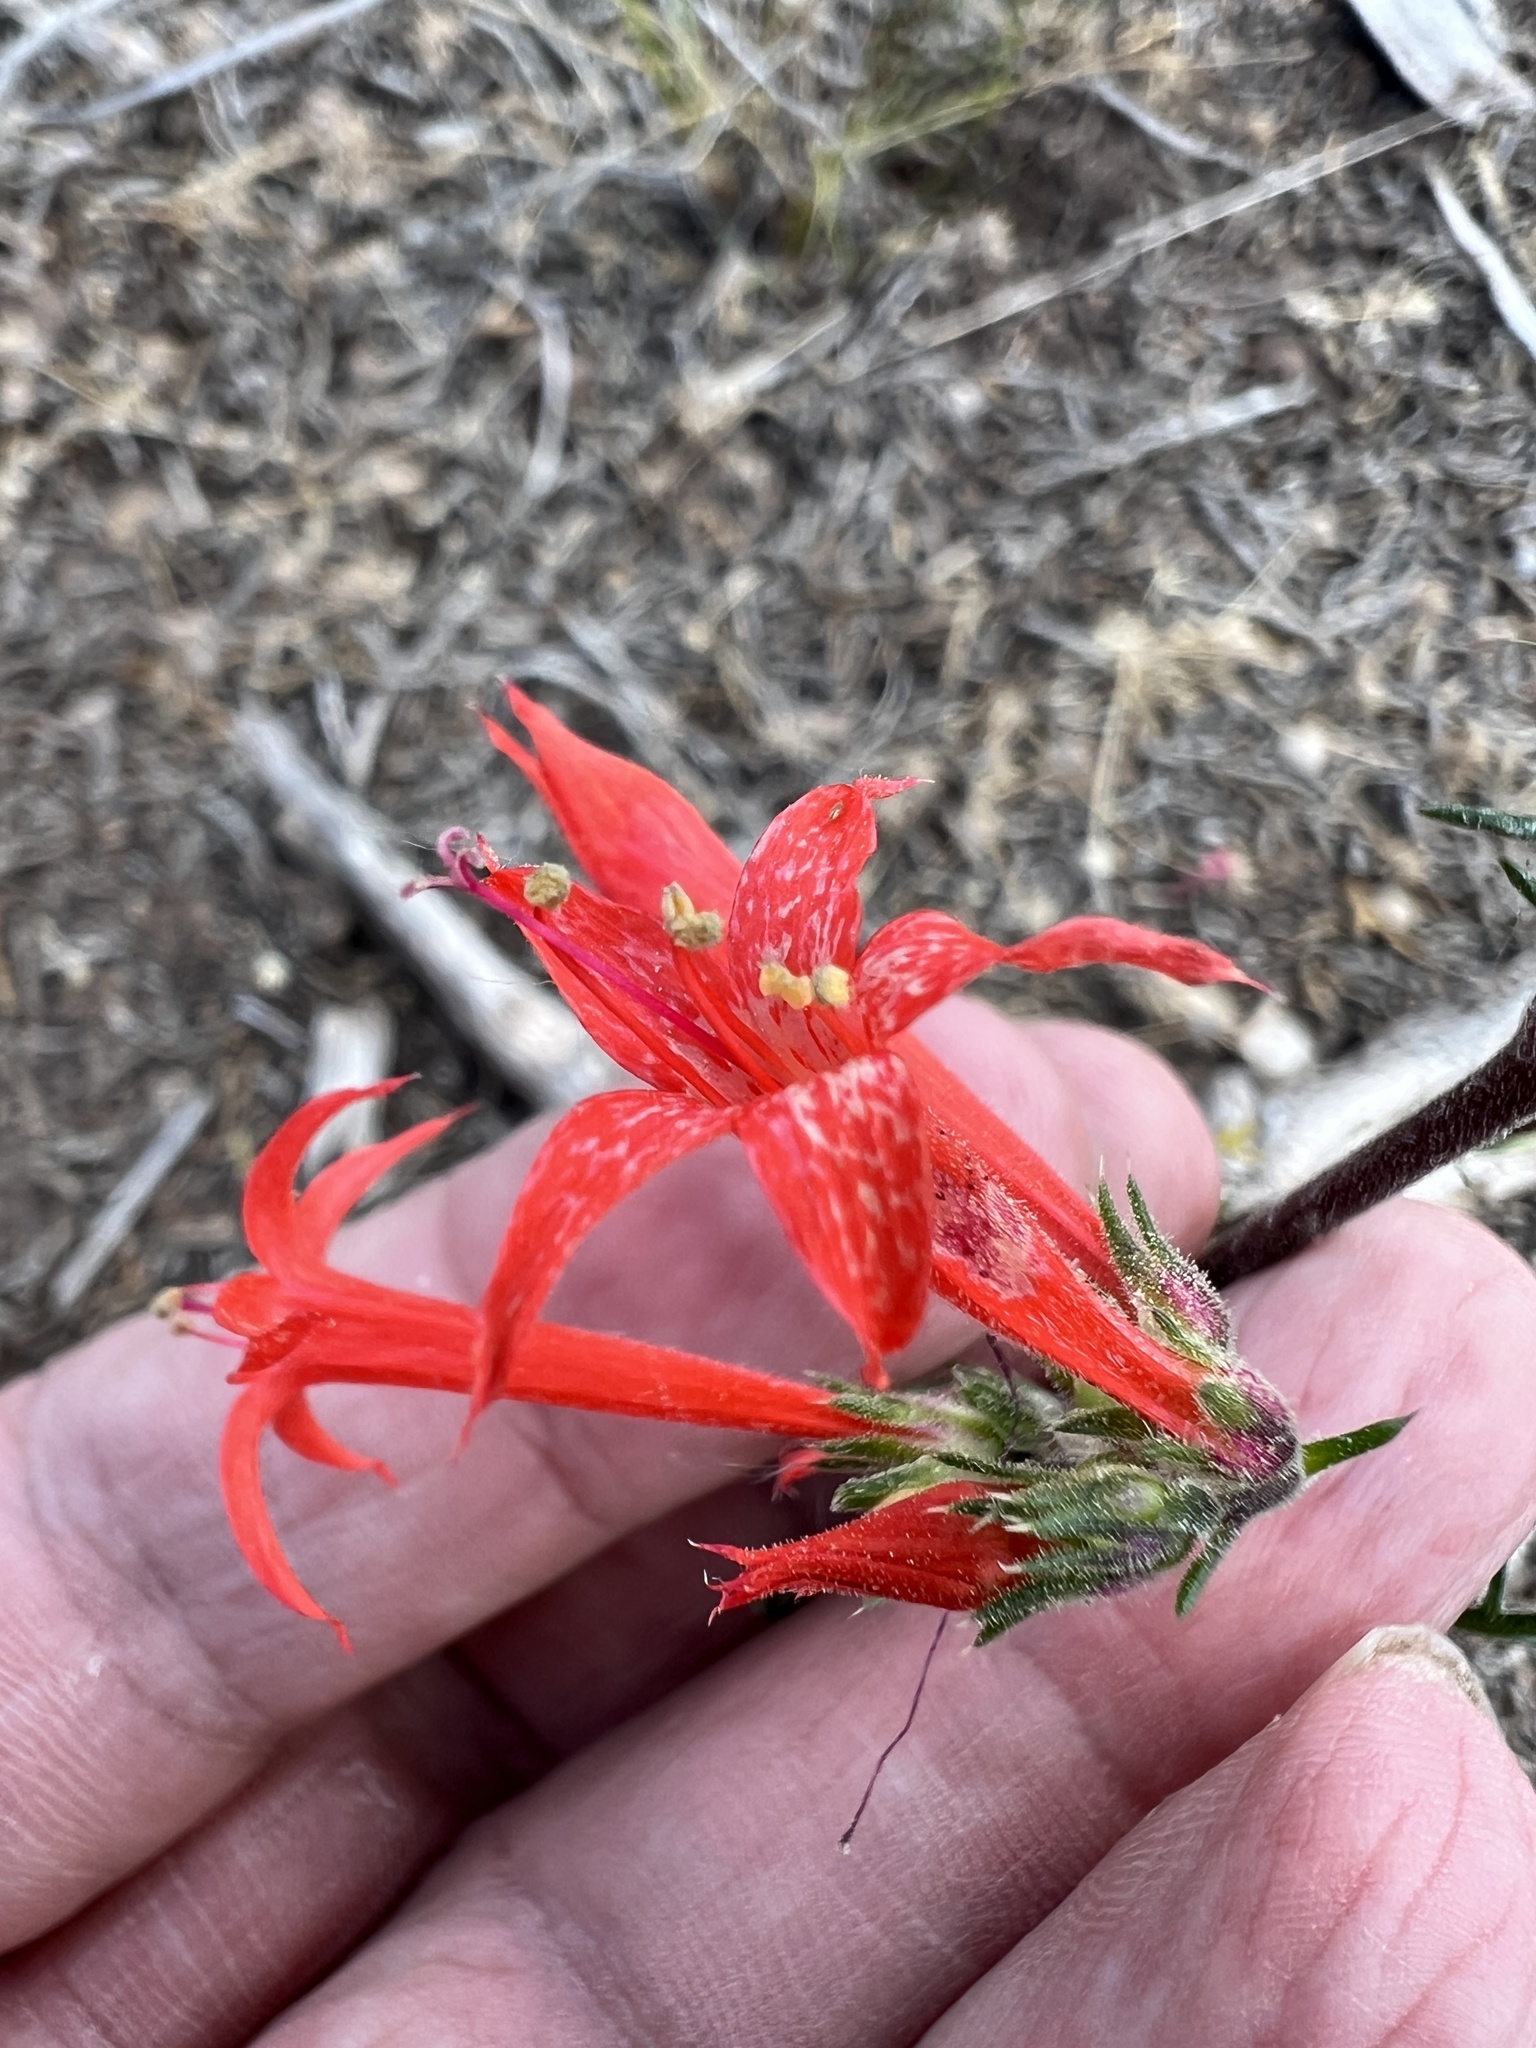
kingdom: Plantae
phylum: Tracheophyta
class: Magnoliopsida
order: Ericales
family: Polemoniaceae
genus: Ipomopsis
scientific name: Ipomopsis aggregata
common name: Scarlet gilia
